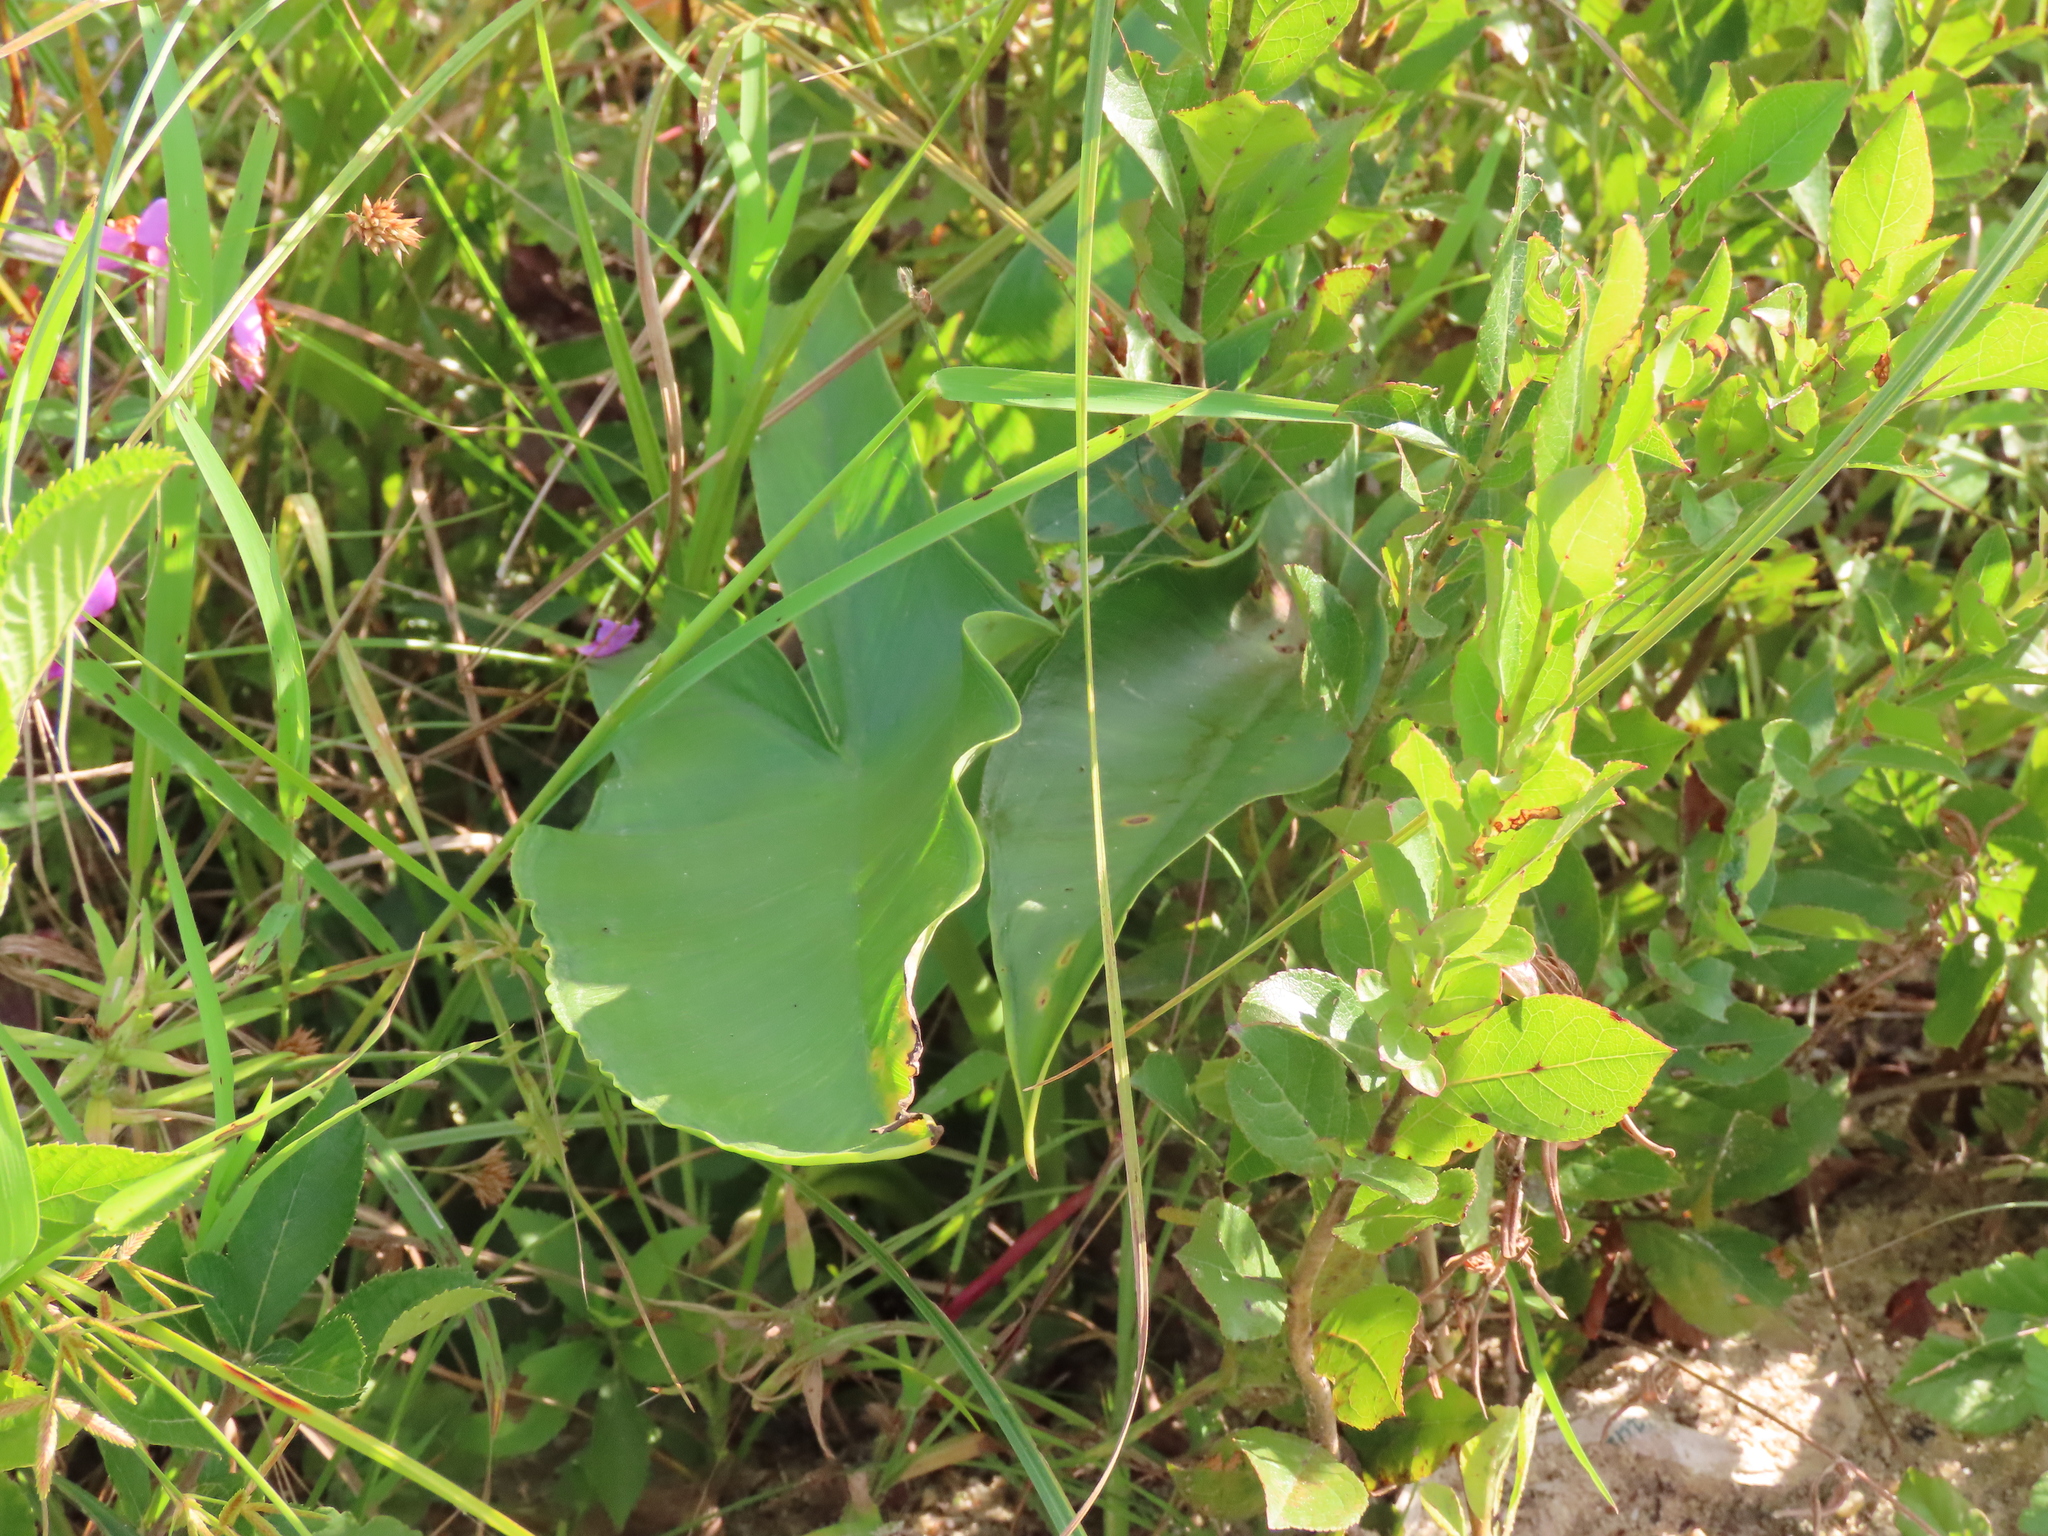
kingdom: Plantae
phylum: Tracheophyta
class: Liliopsida
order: Alismatales
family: Araceae
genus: Peltandra
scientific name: Peltandra virginica
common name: Arrow arum
